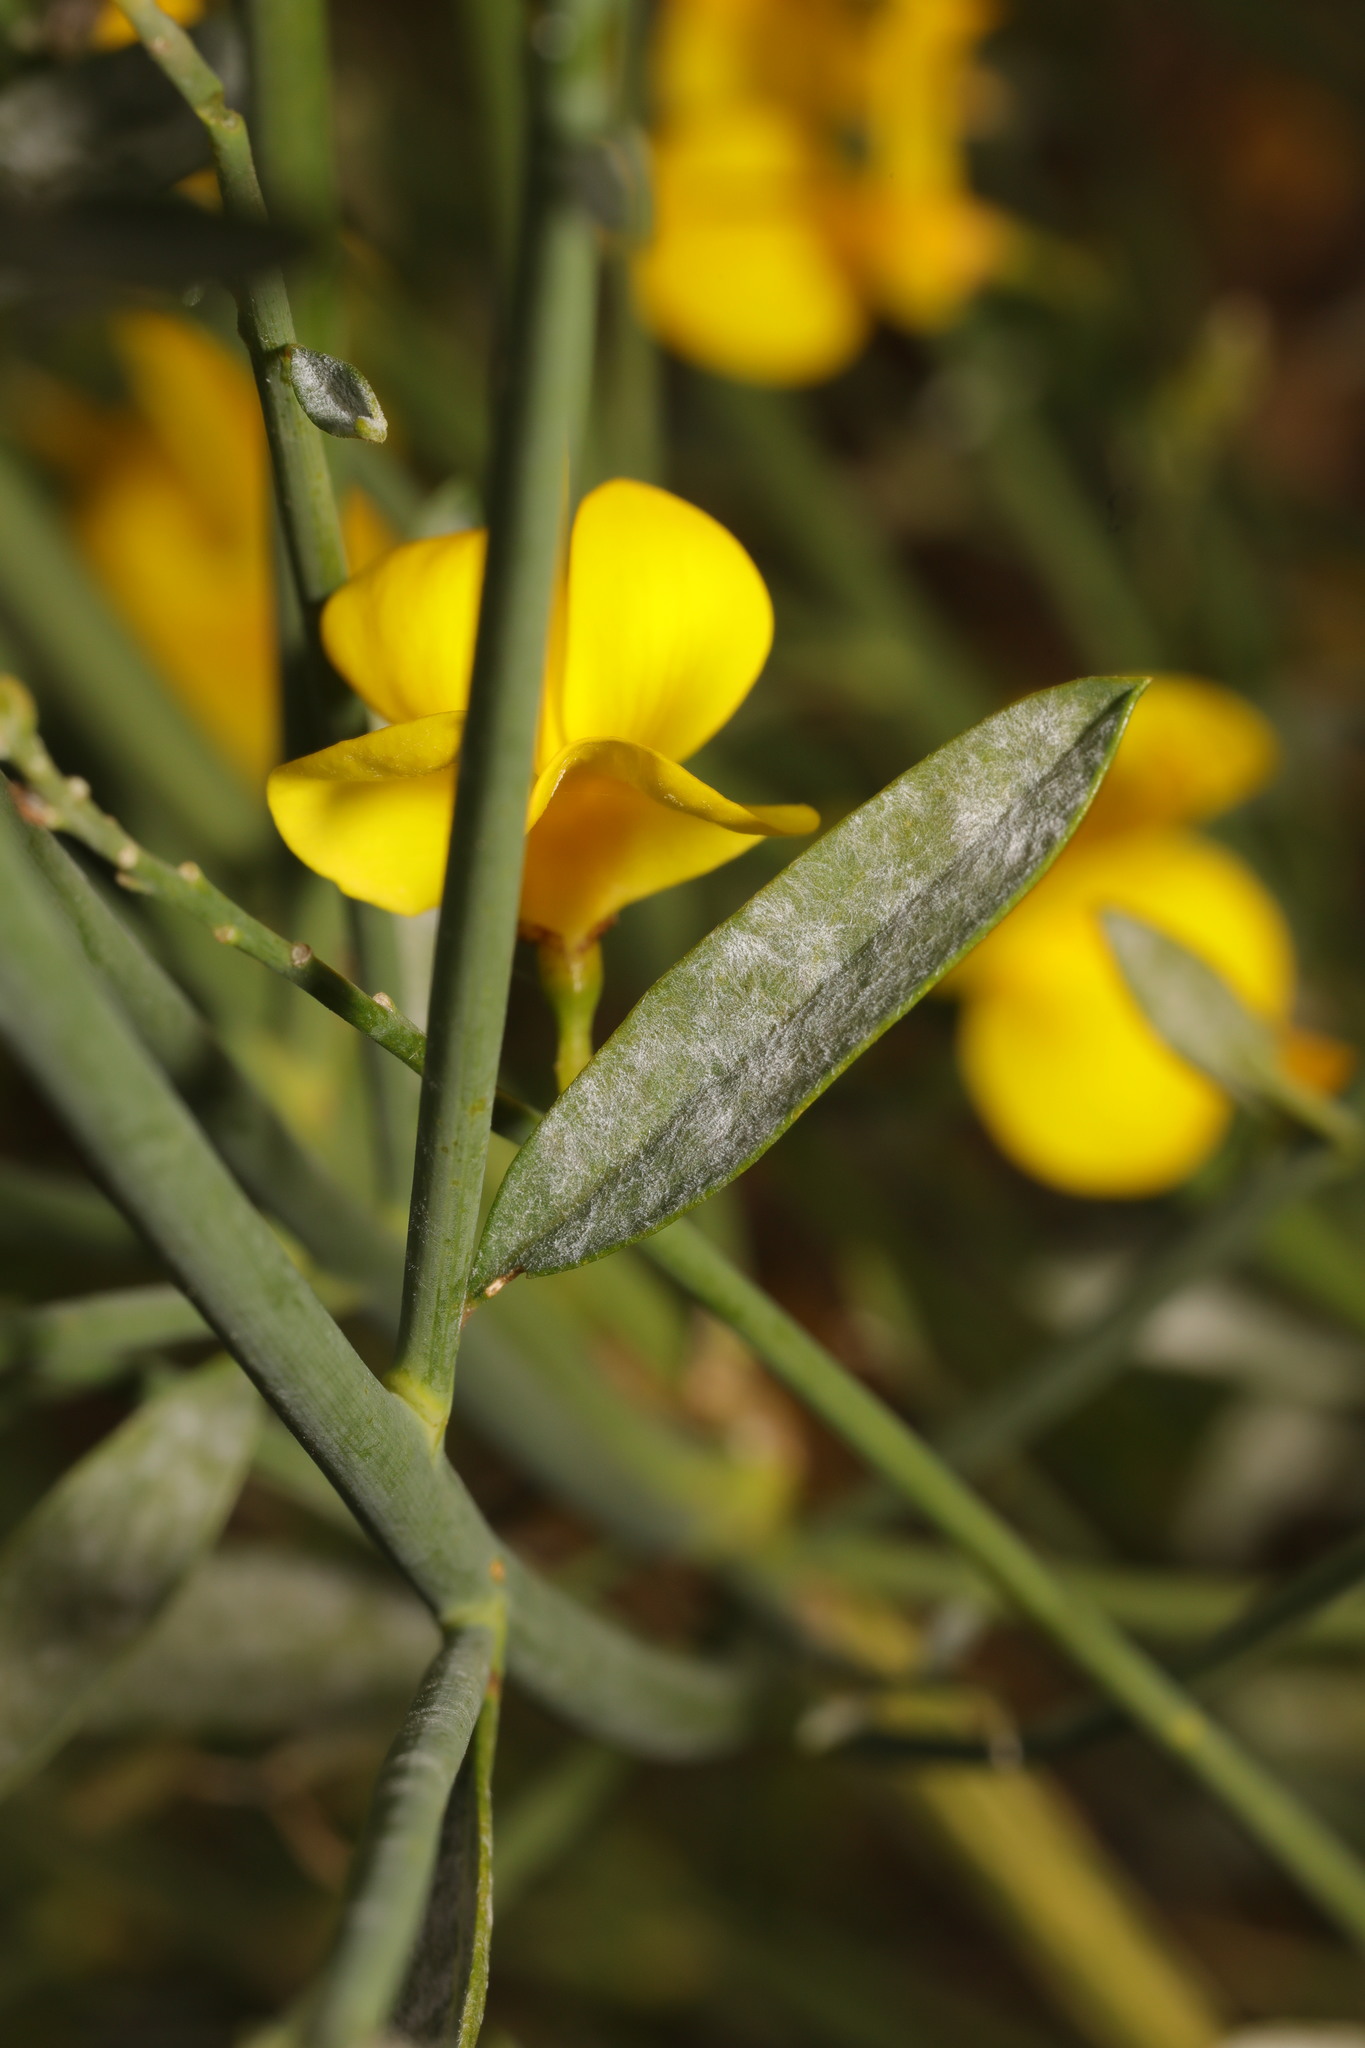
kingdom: Fungi
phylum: Ascomycota
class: Leotiomycetes
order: Helotiales
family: Erysiphaceae
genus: Erysiphe
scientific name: Erysiphe rayssiae
